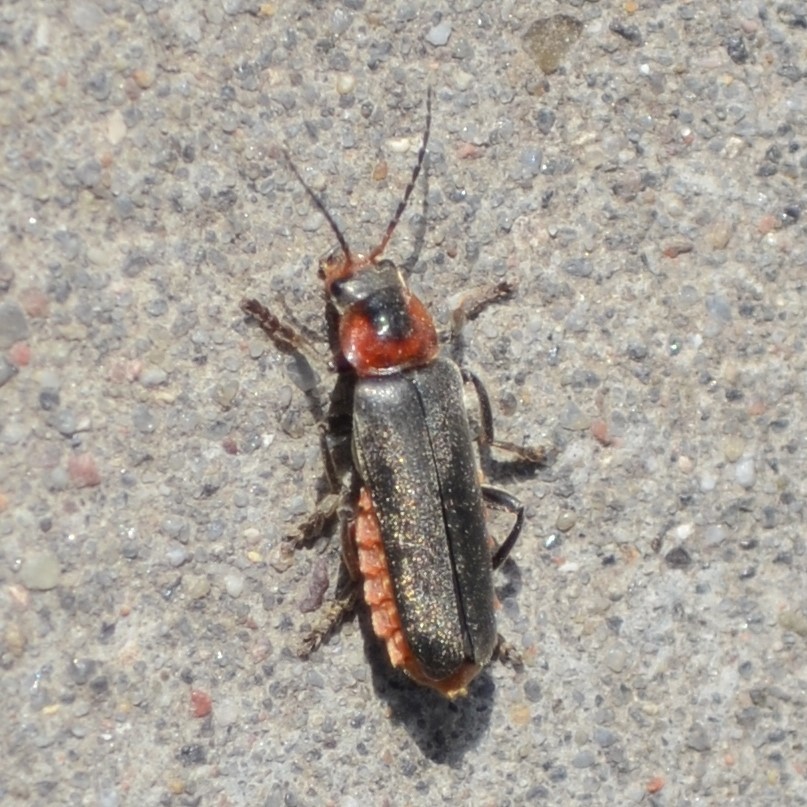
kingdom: Animalia
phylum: Arthropoda
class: Insecta
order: Coleoptera
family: Cantharidae
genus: Cantharis
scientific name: Cantharis fusca
